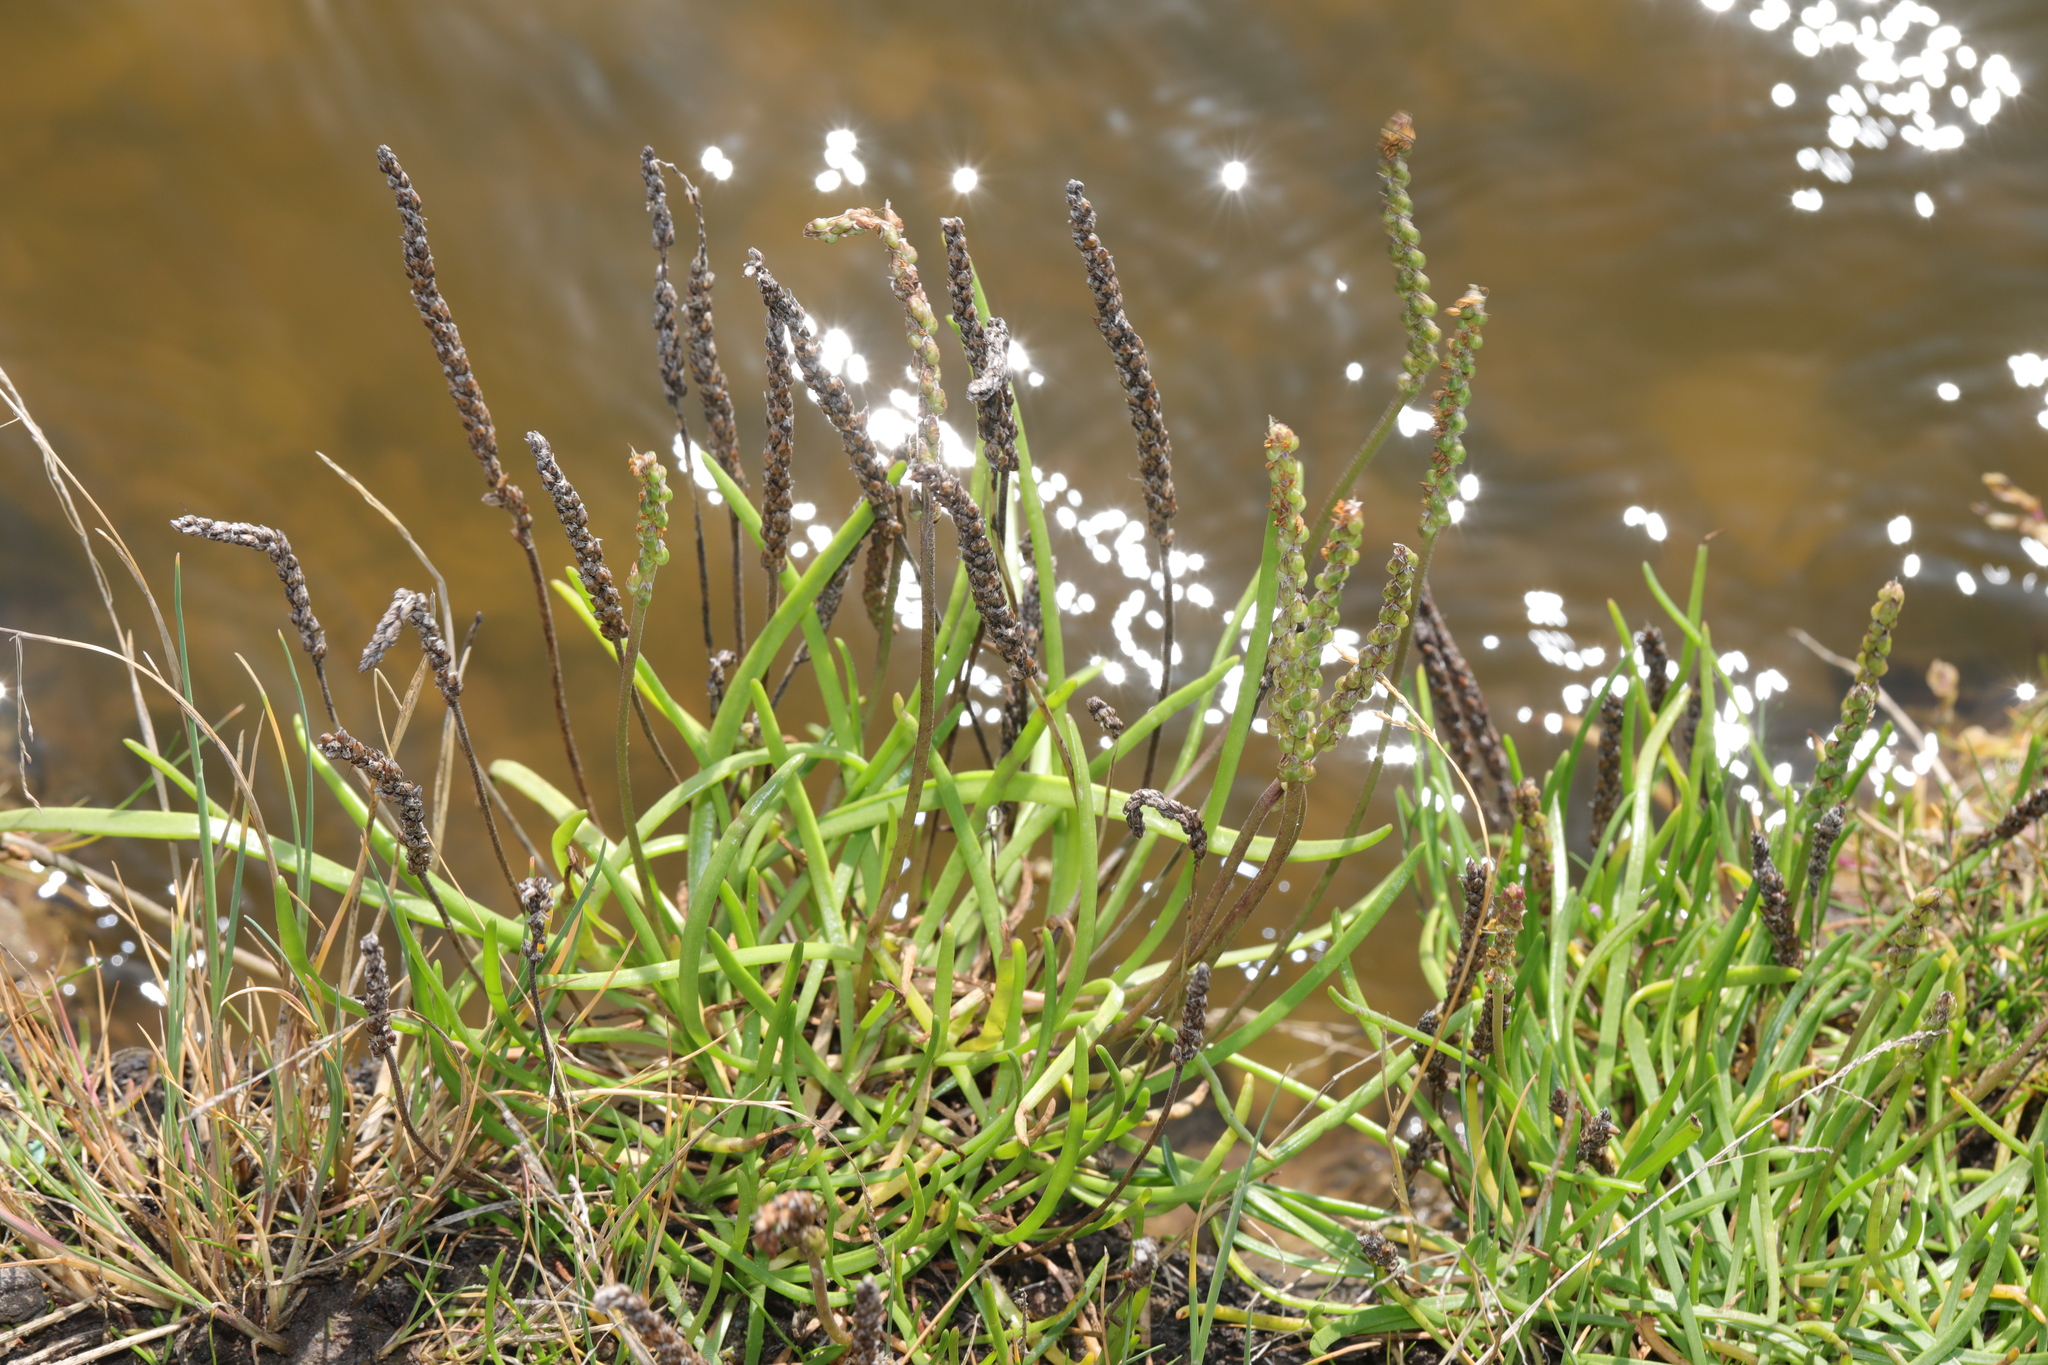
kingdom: Plantae
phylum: Tracheophyta
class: Magnoliopsida
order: Lamiales
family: Plantaginaceae
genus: Plantago
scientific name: Plantago maritima
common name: Sea plantain
